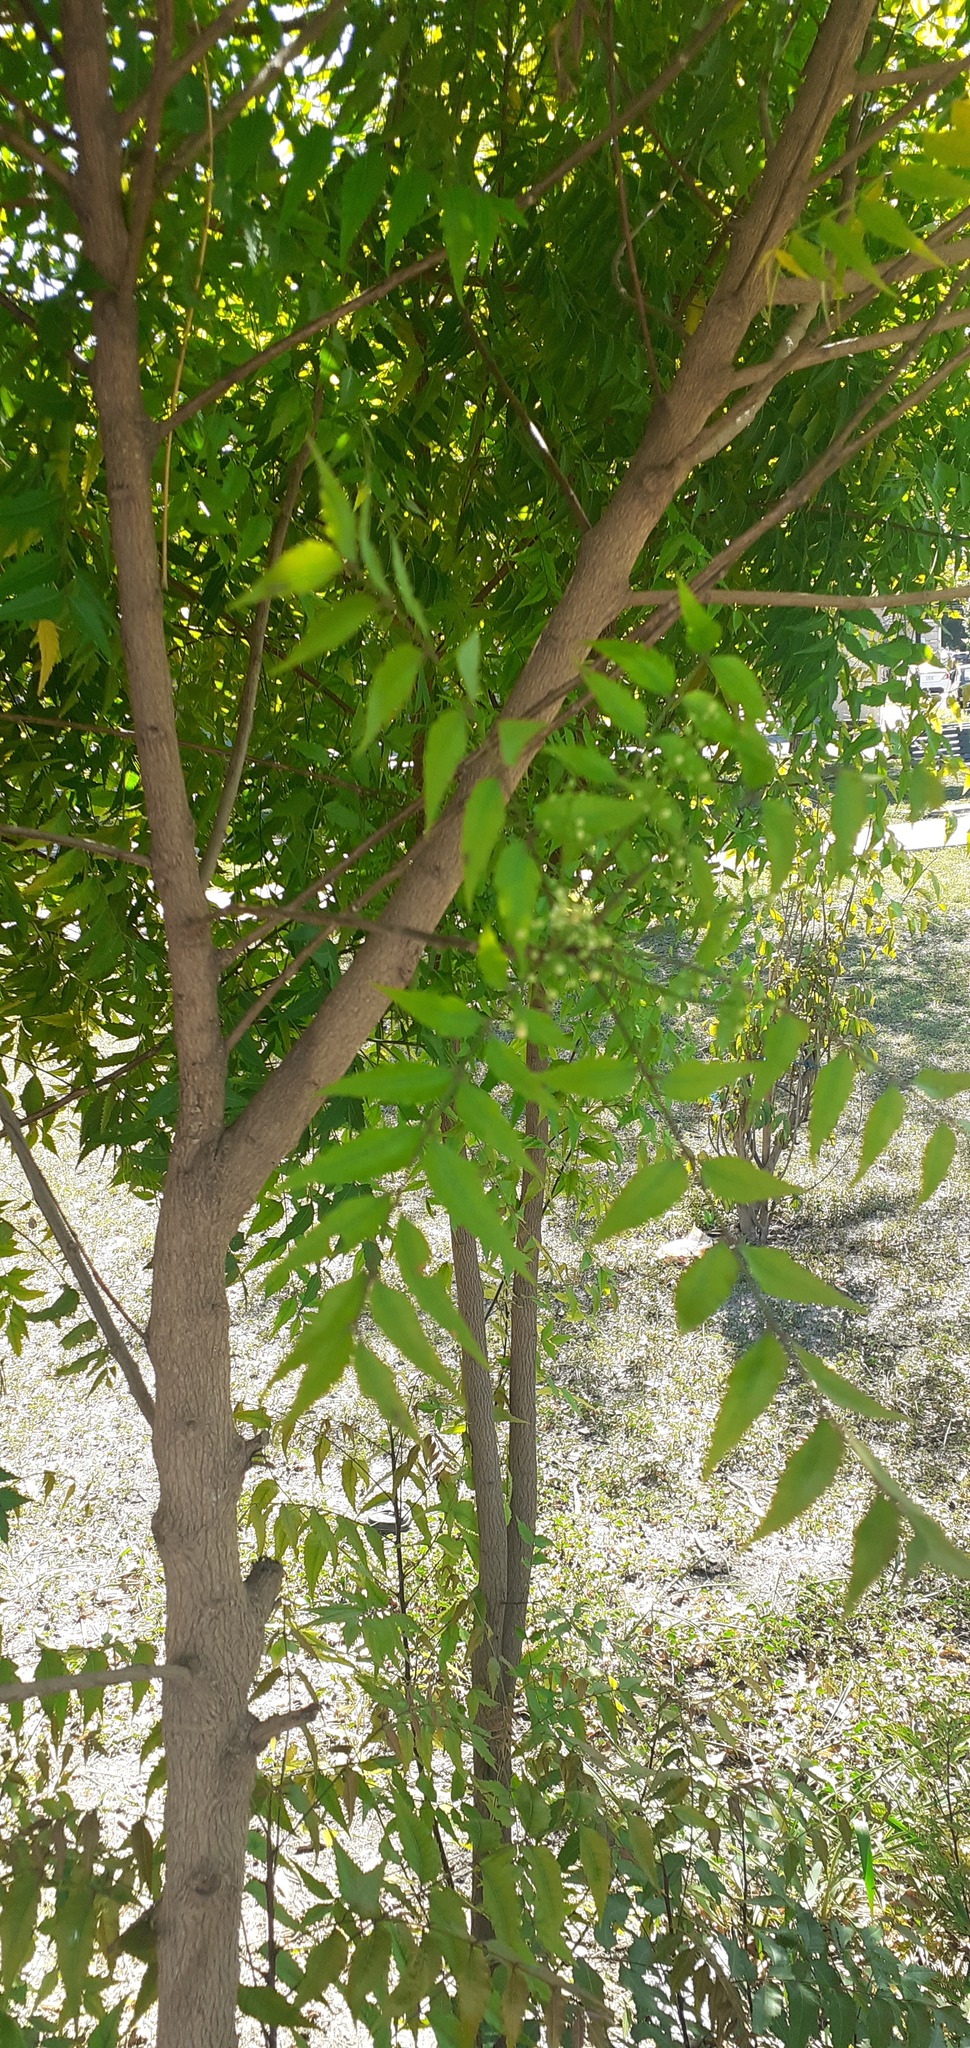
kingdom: Plantae
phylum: Tracheophyta
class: Magnoliopsida
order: Sapindales
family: Meliaceae
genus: Azadirachta
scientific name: Azadirachta indica
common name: Neem
